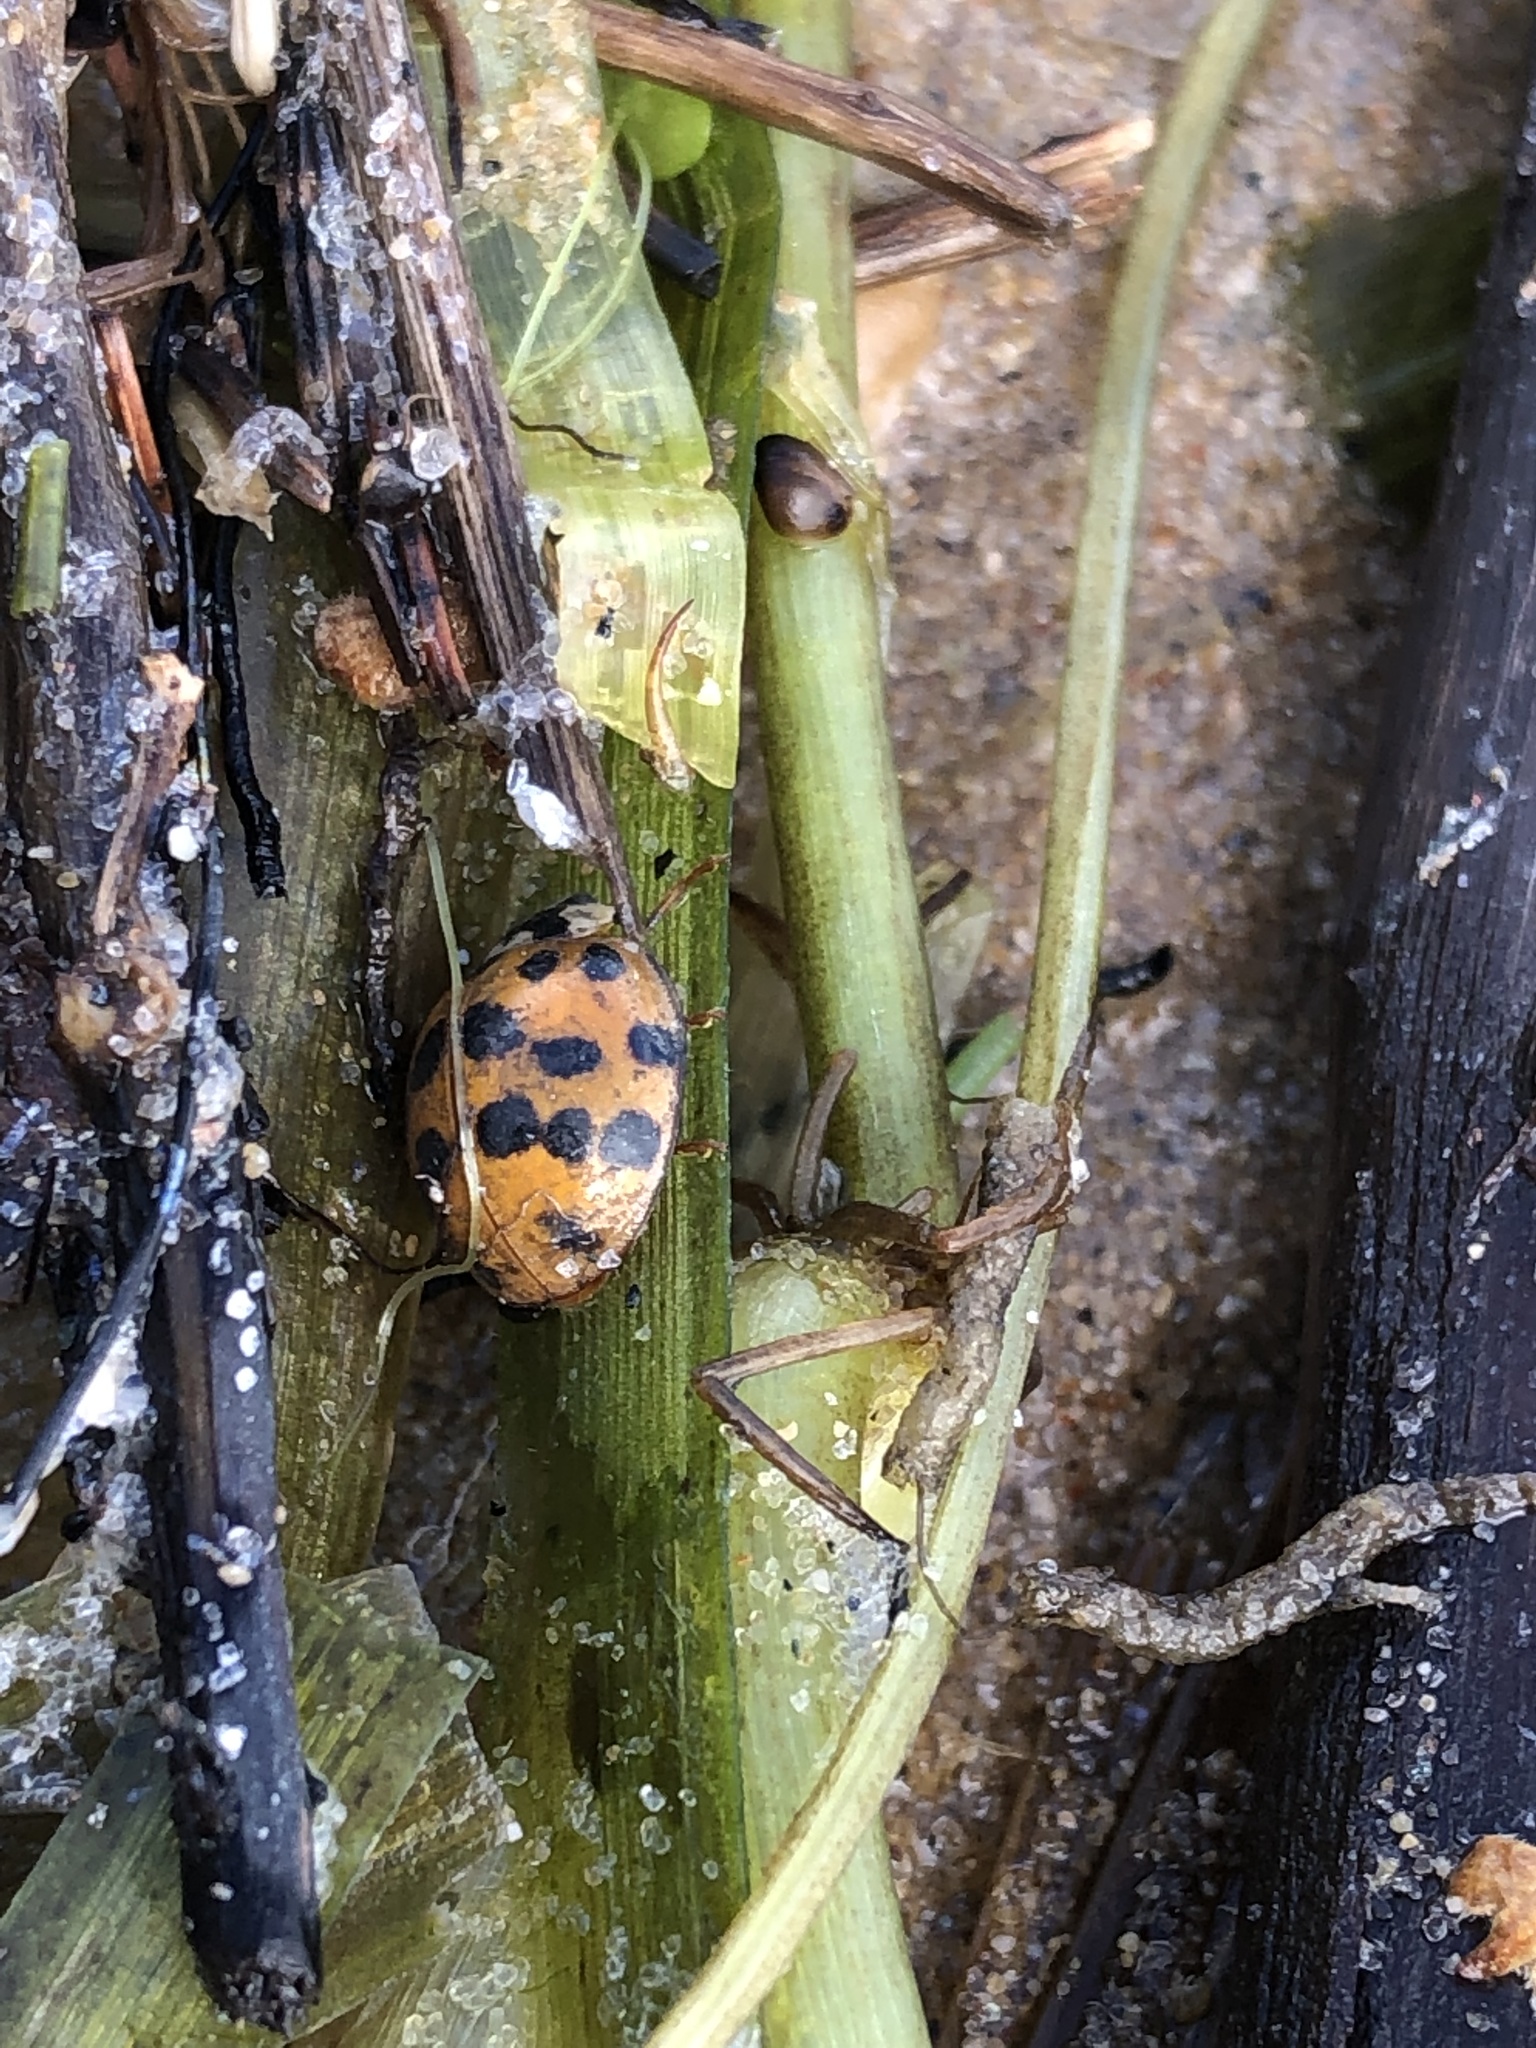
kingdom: Animalia
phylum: Arthropoda
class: Insecta
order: Coleoptera
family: Coccinellidae
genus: Harmonia
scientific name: Harmonia axyridis
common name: Harlequin ladybird
